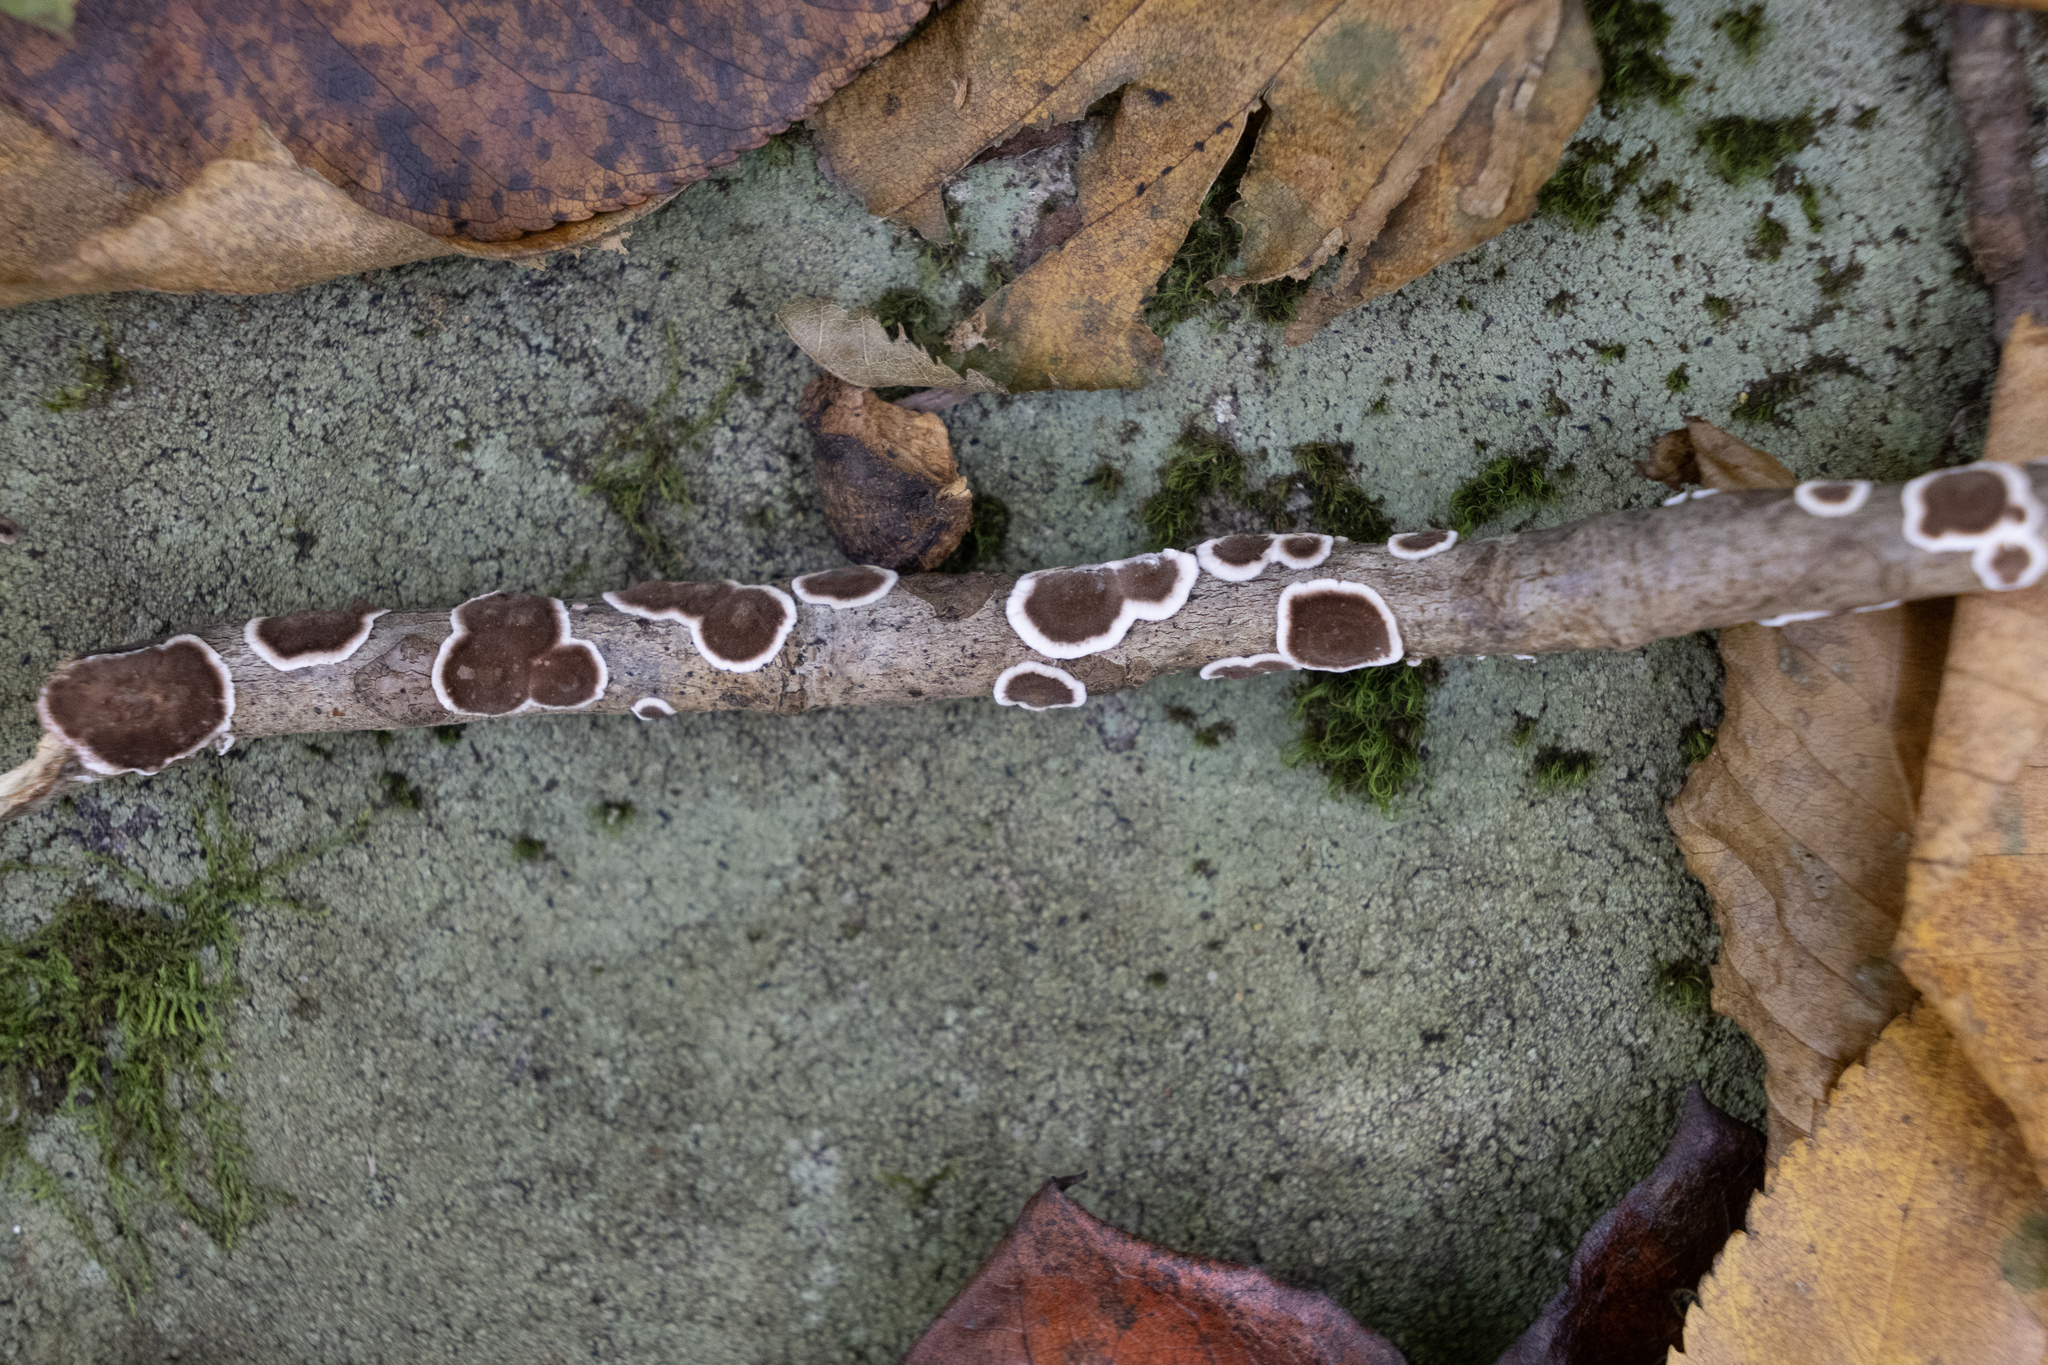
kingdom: Fungi
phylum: Basidiomycota
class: Agaricomycetes
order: Russulales
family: Peniophoraceae
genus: Peniophora
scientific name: Peniophora albobadia
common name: Giraffe spots
